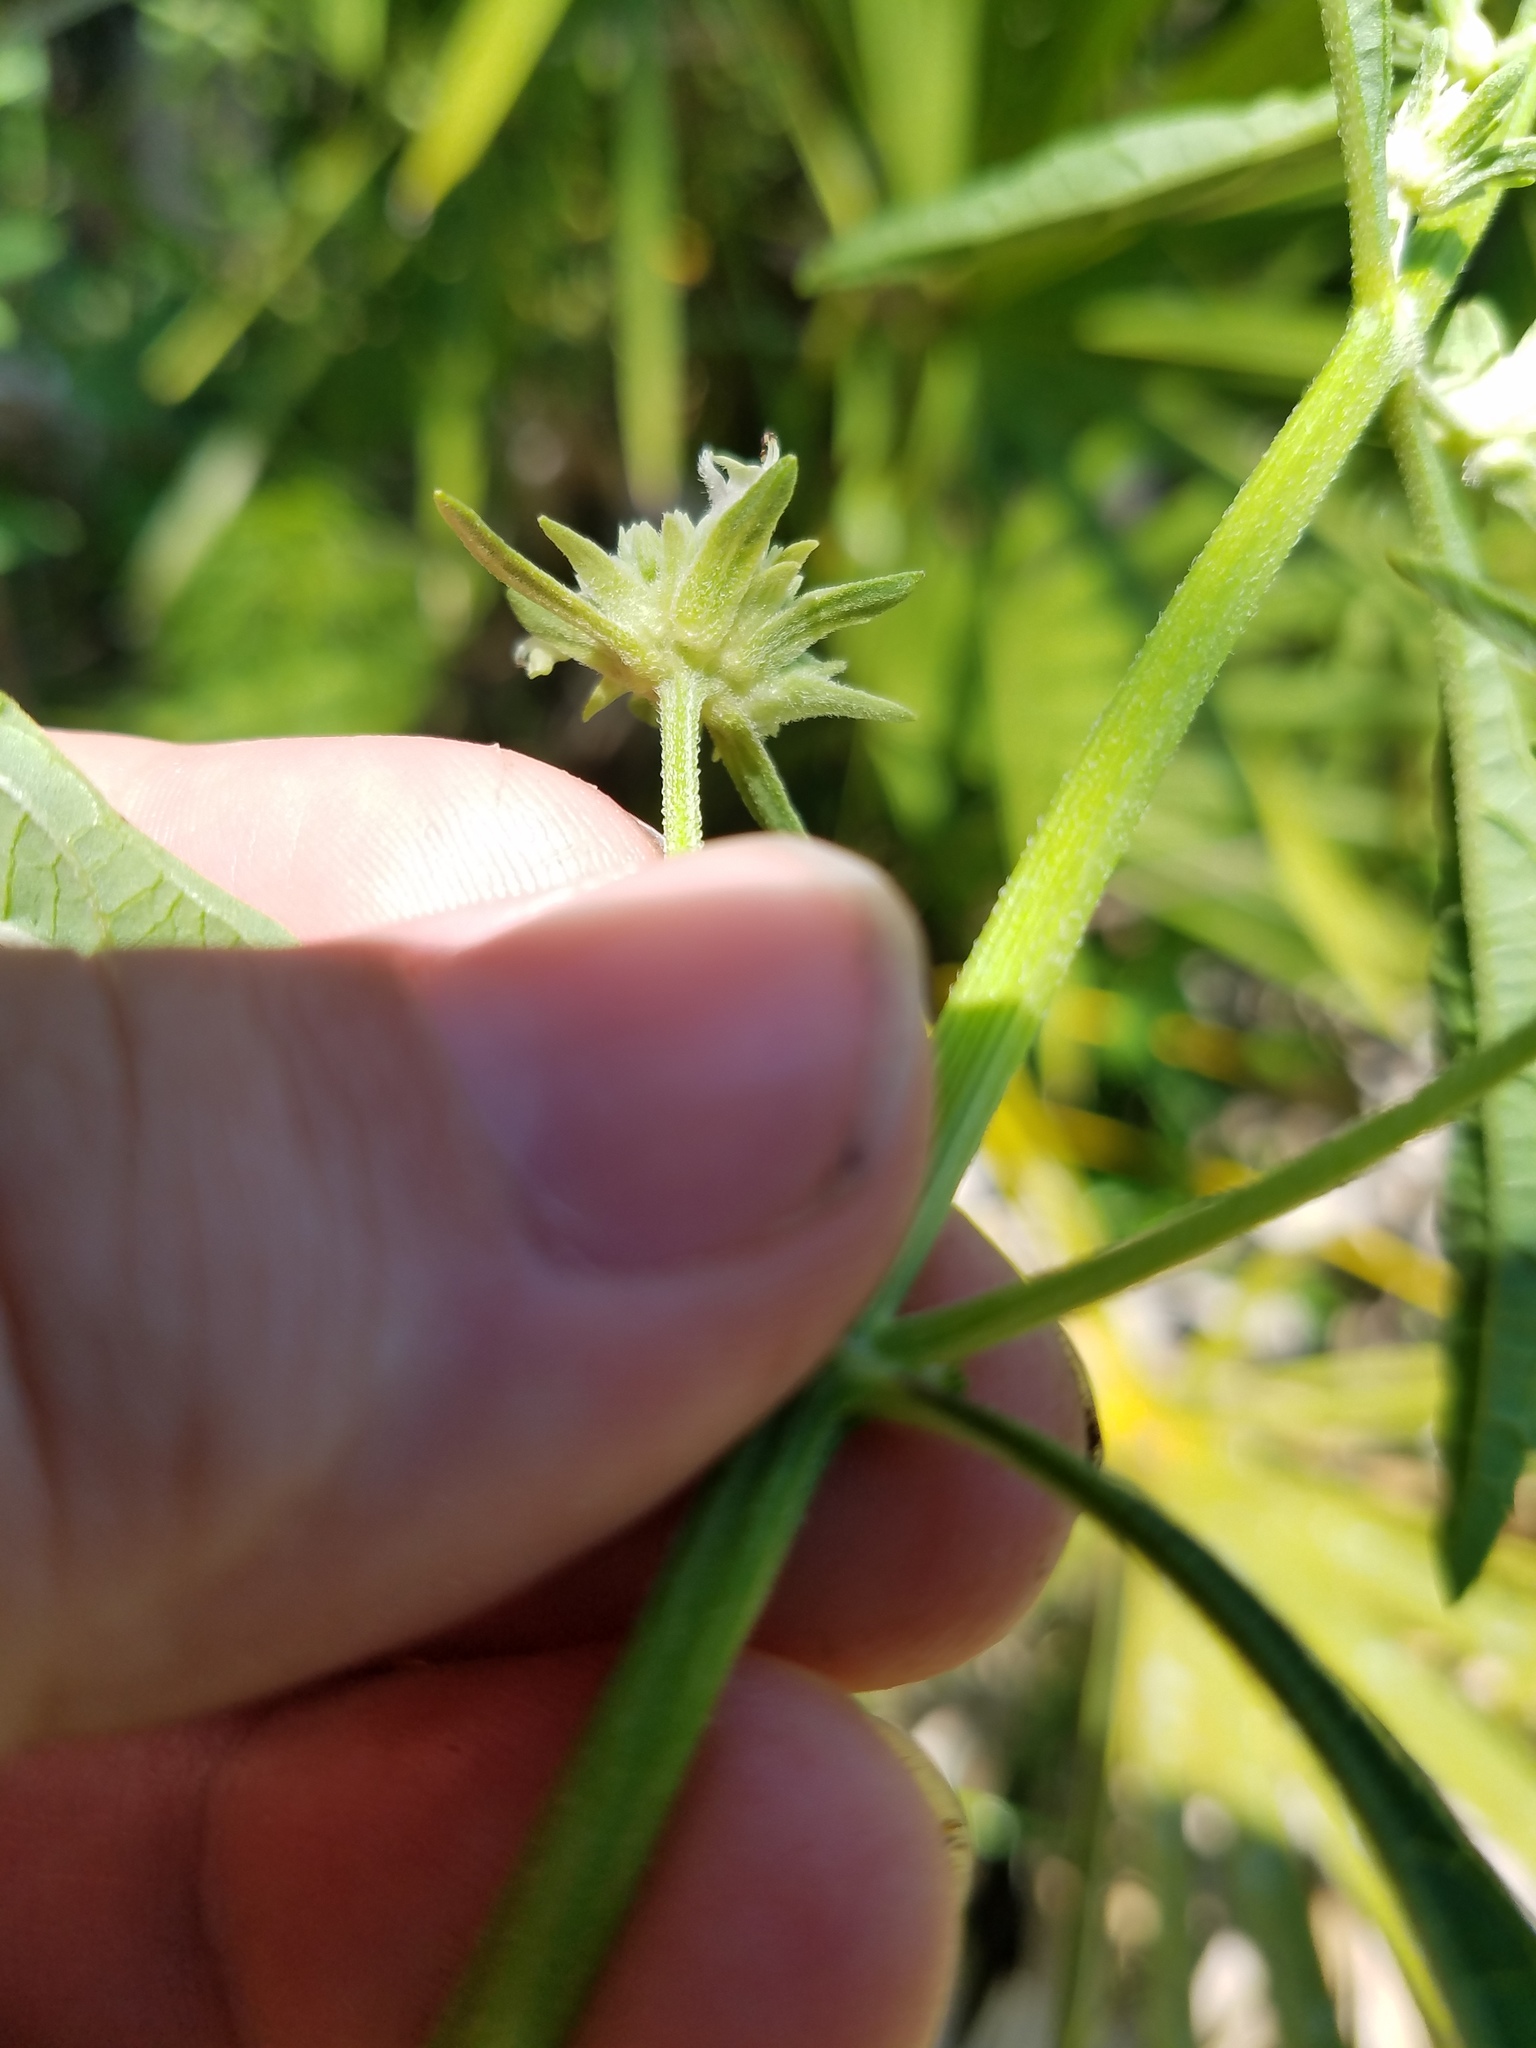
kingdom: Plantae
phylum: Tracheophyta
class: Magnoliopsida
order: Lamiales
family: Lamiaceae
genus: Hyptis
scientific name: Hyptis alata
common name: Cluster bush-mint
